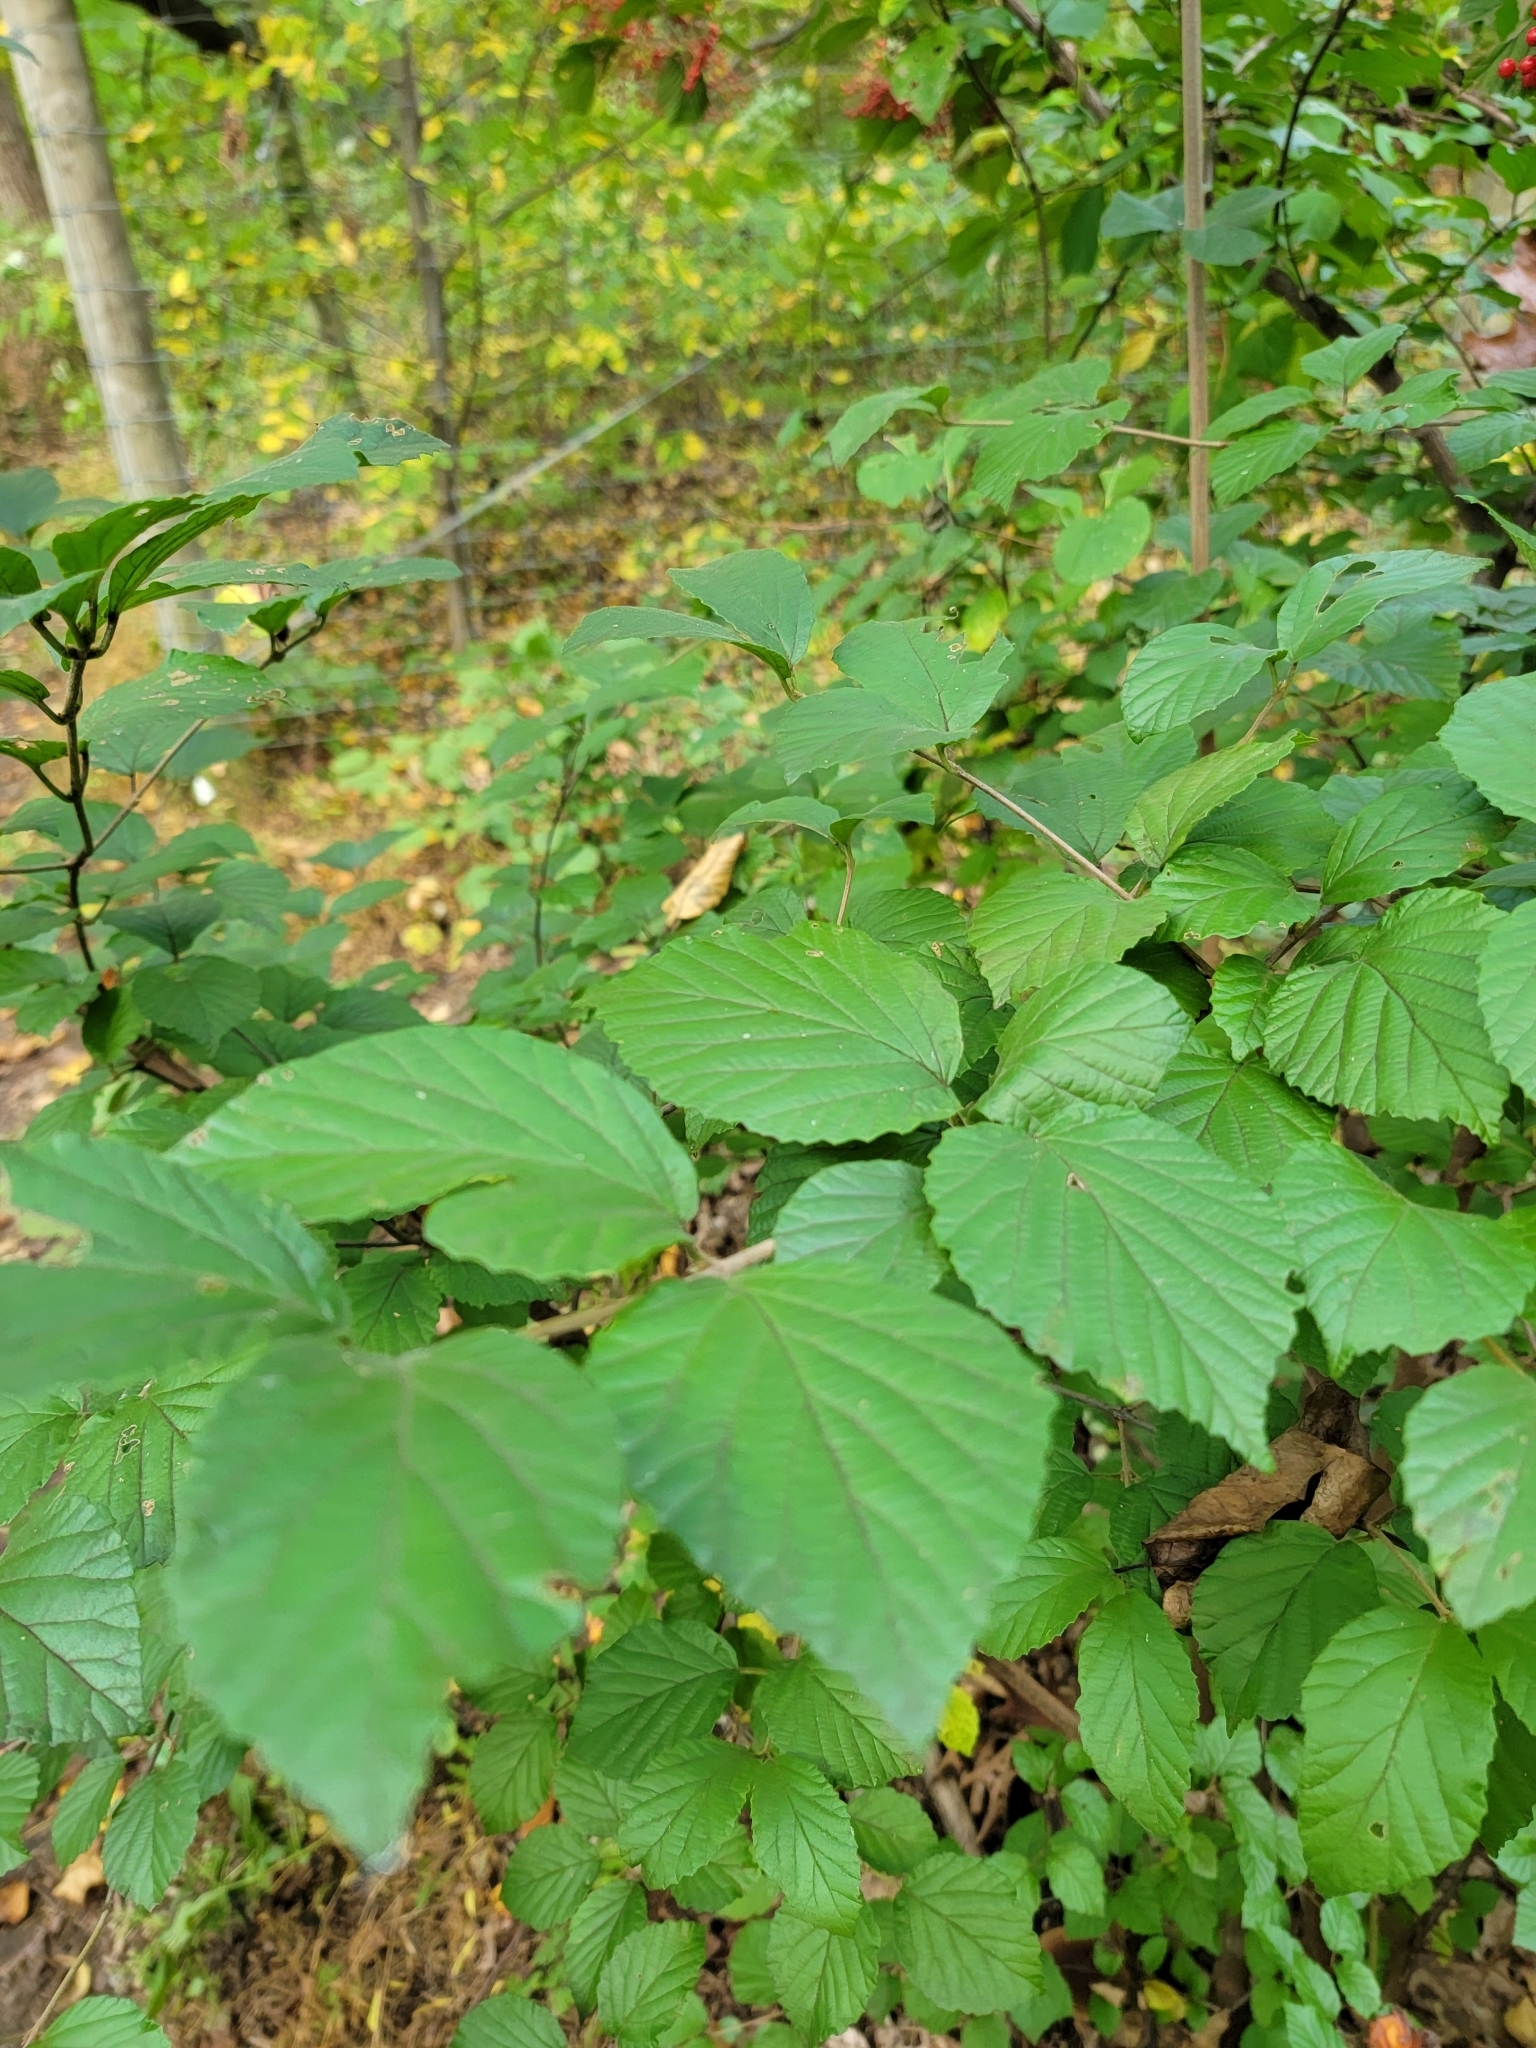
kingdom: Plantae
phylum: Tracheophyta
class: Magnoliopsida
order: Dipsacales
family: Viburnaceae
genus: Viburnum
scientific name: Viburnum dilatatum
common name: Linden arrowwood
